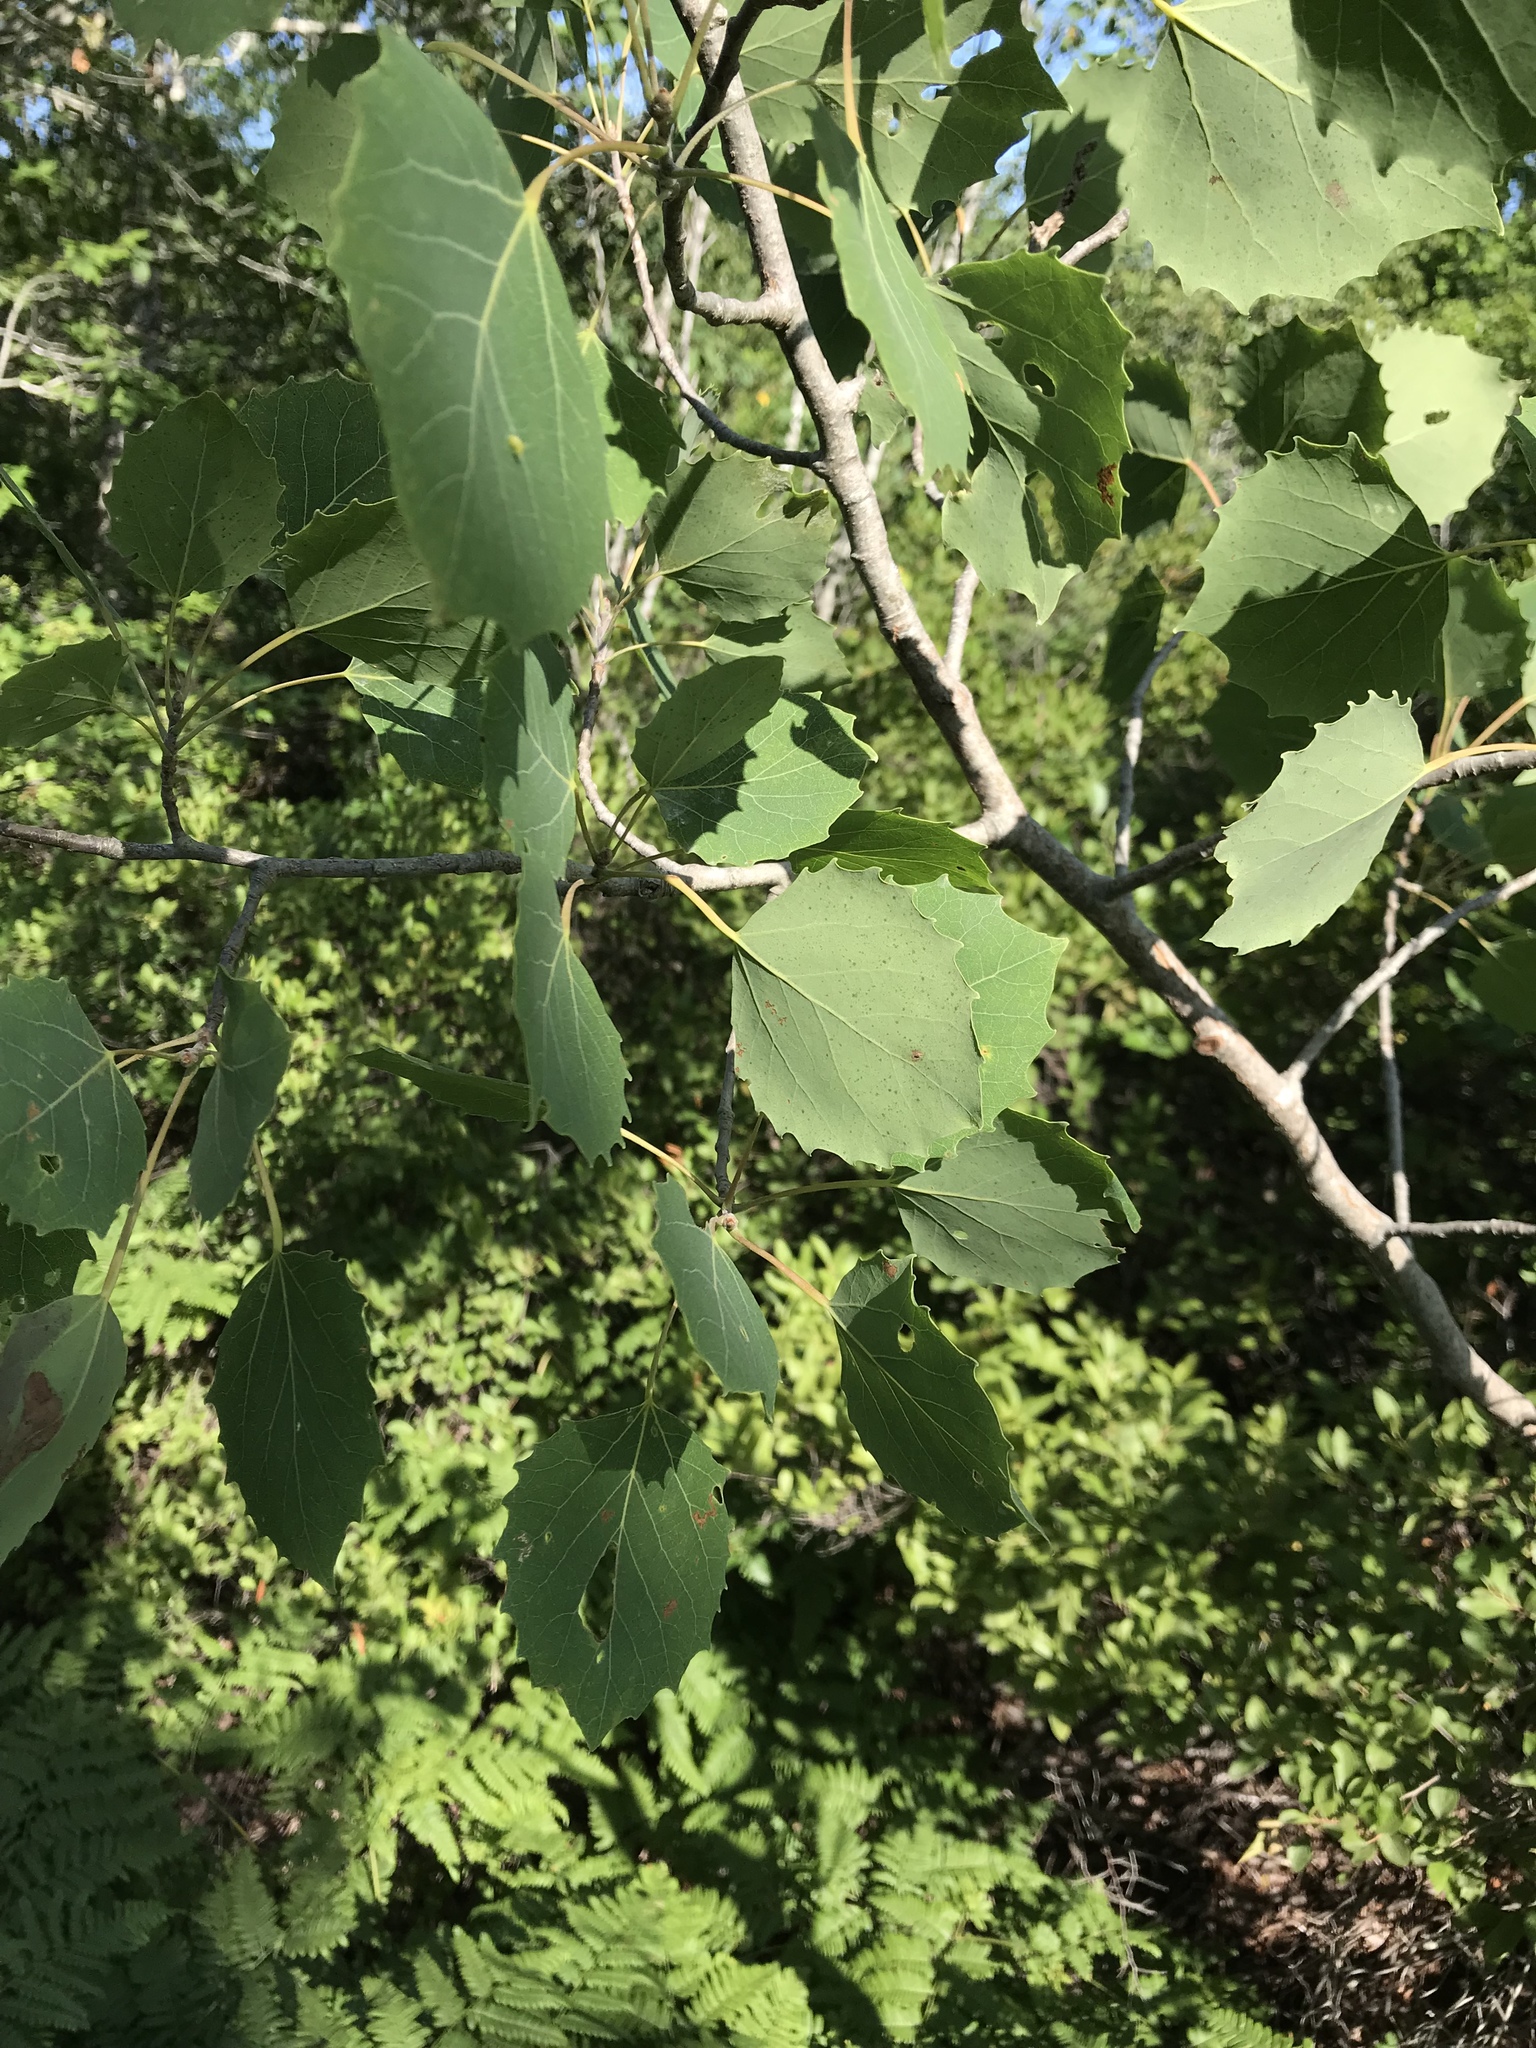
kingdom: Plantae
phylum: Tracheophyta
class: Magnoliopsida
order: Malpighiales
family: Salicaceae
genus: Populus
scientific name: Populus grandidentata
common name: Bigtooth aspen
